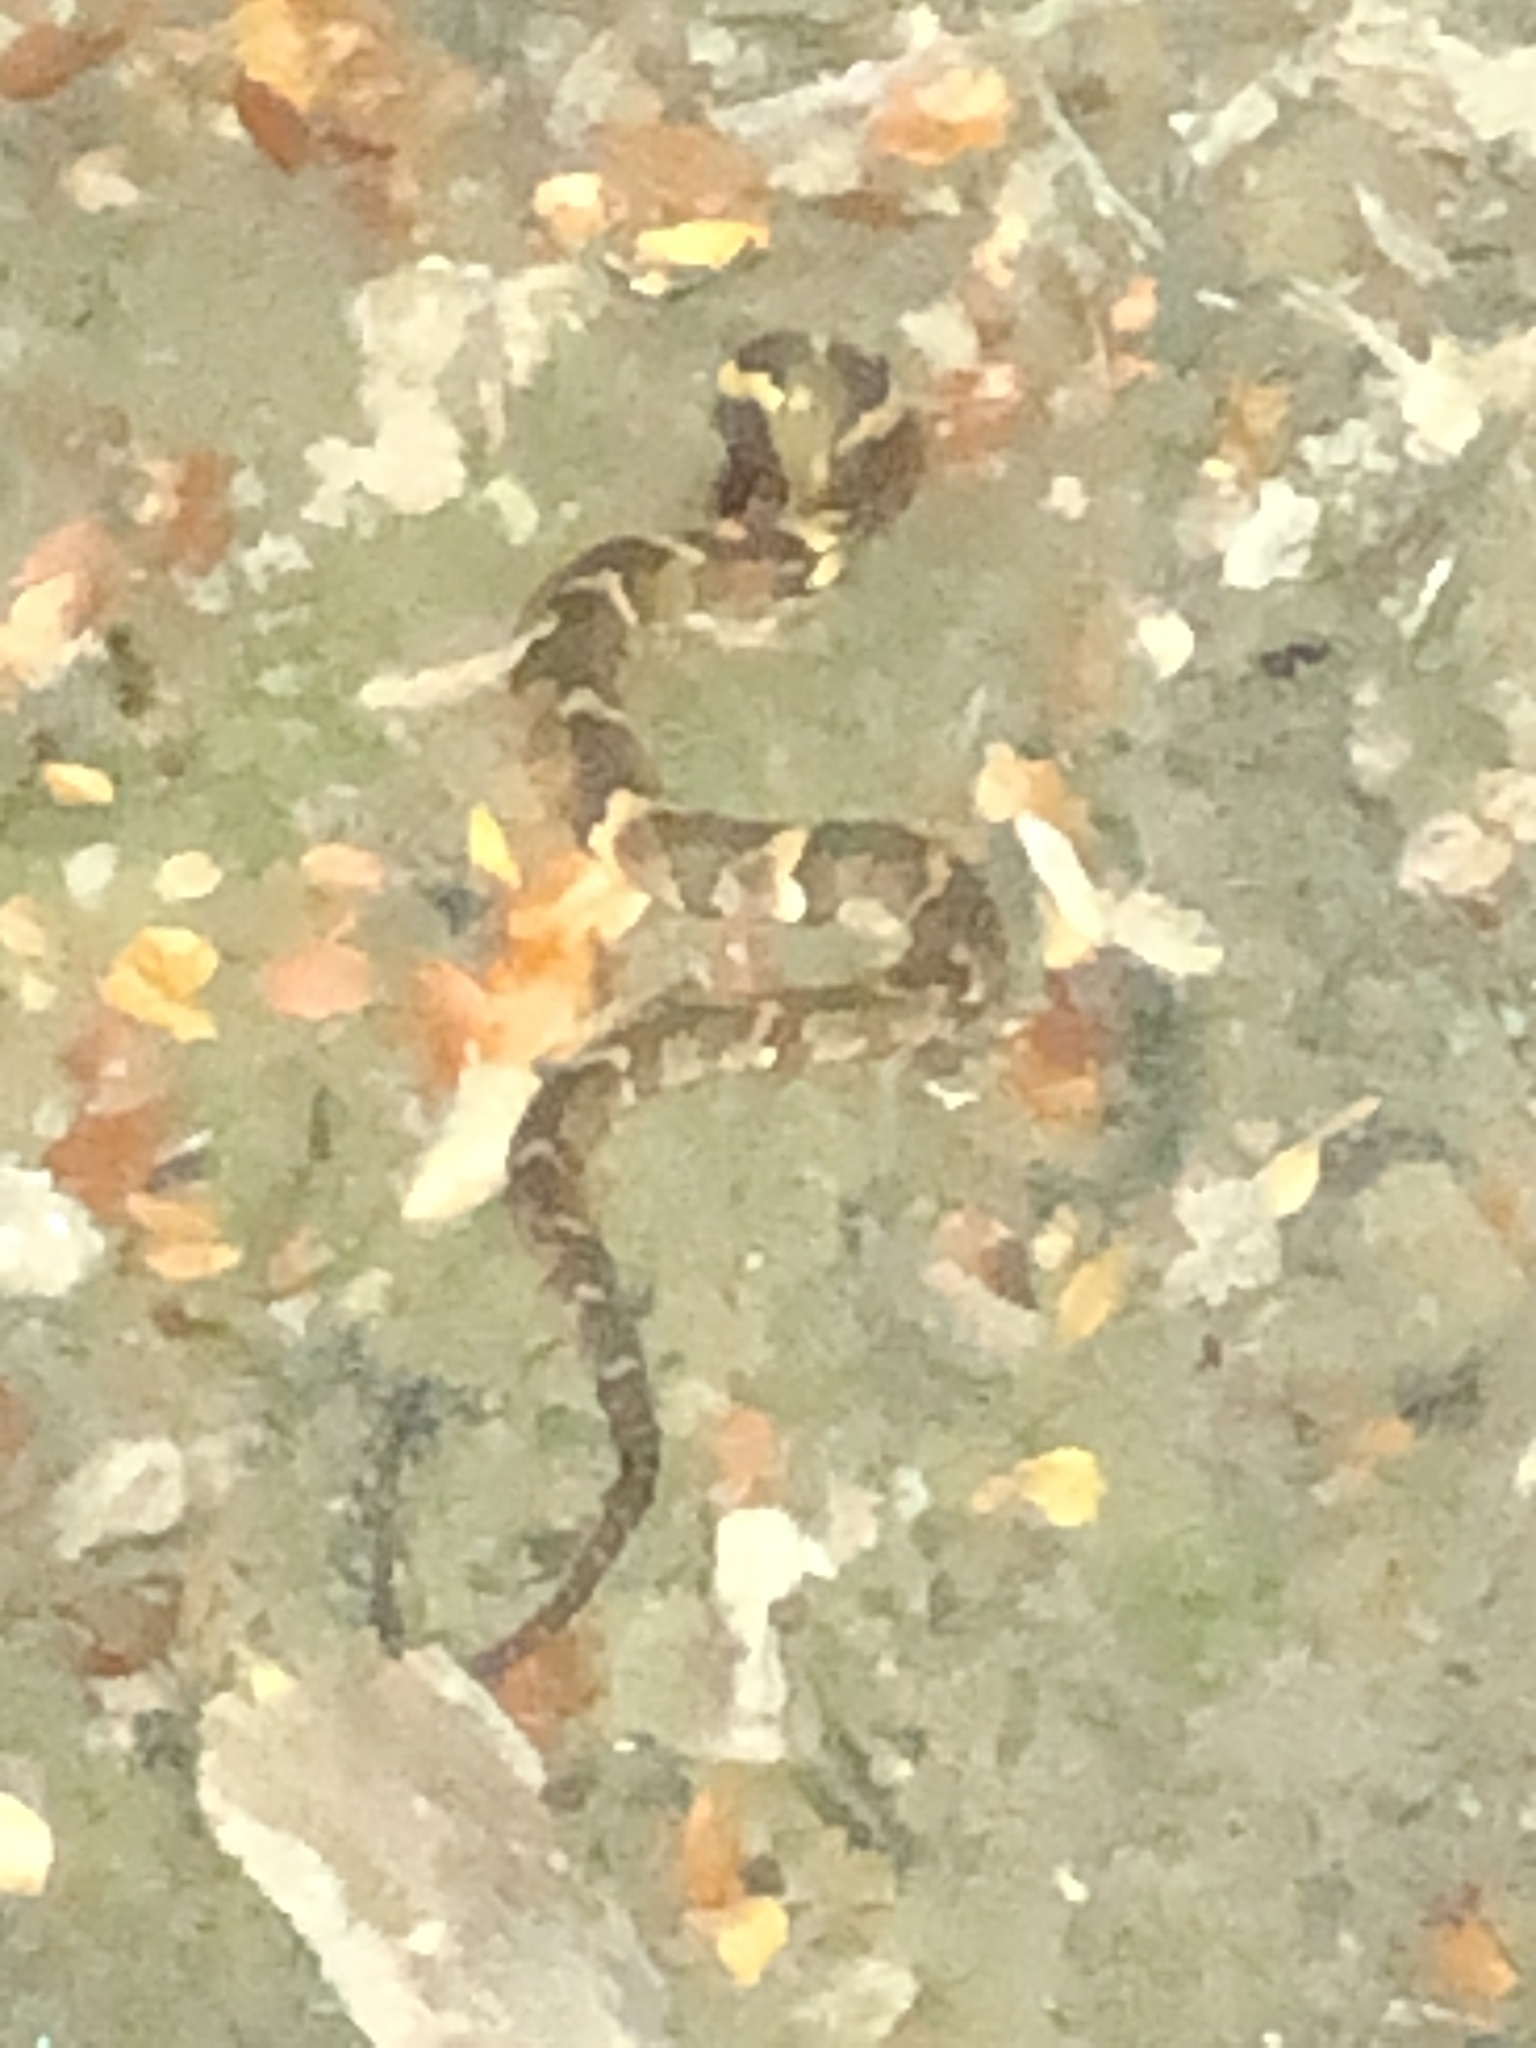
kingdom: Animalia
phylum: Chordata
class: Squamata
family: Colubridae
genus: Nerodia
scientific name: Nerodia fasciata
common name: Southern water snake
